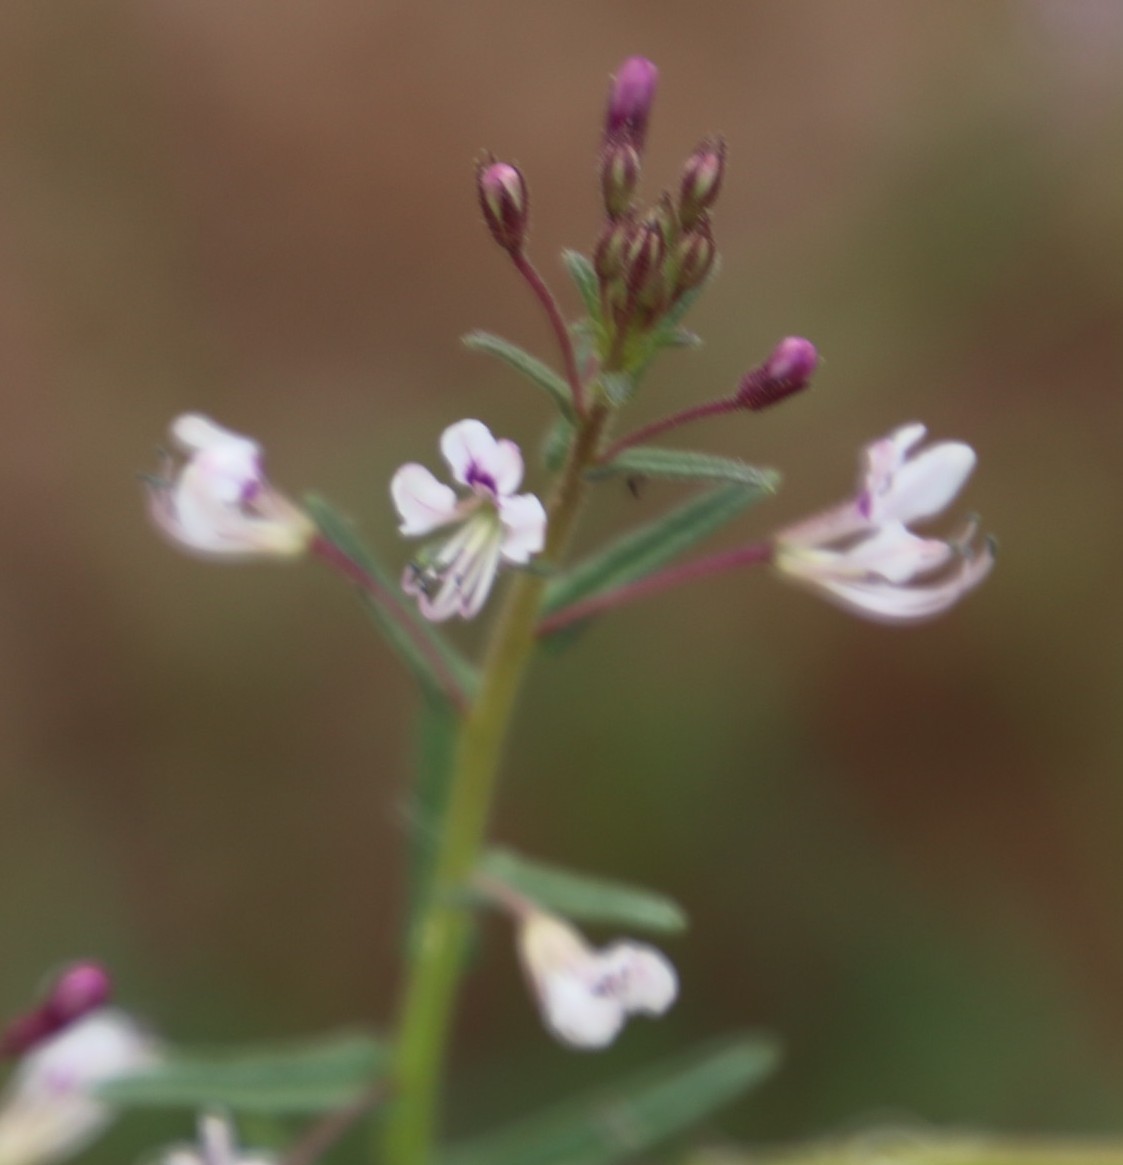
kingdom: Plantae
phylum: Tracheophyta
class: Magnoliopsida
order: Brassicales
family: Cleomaceae
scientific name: Cleomaceae
